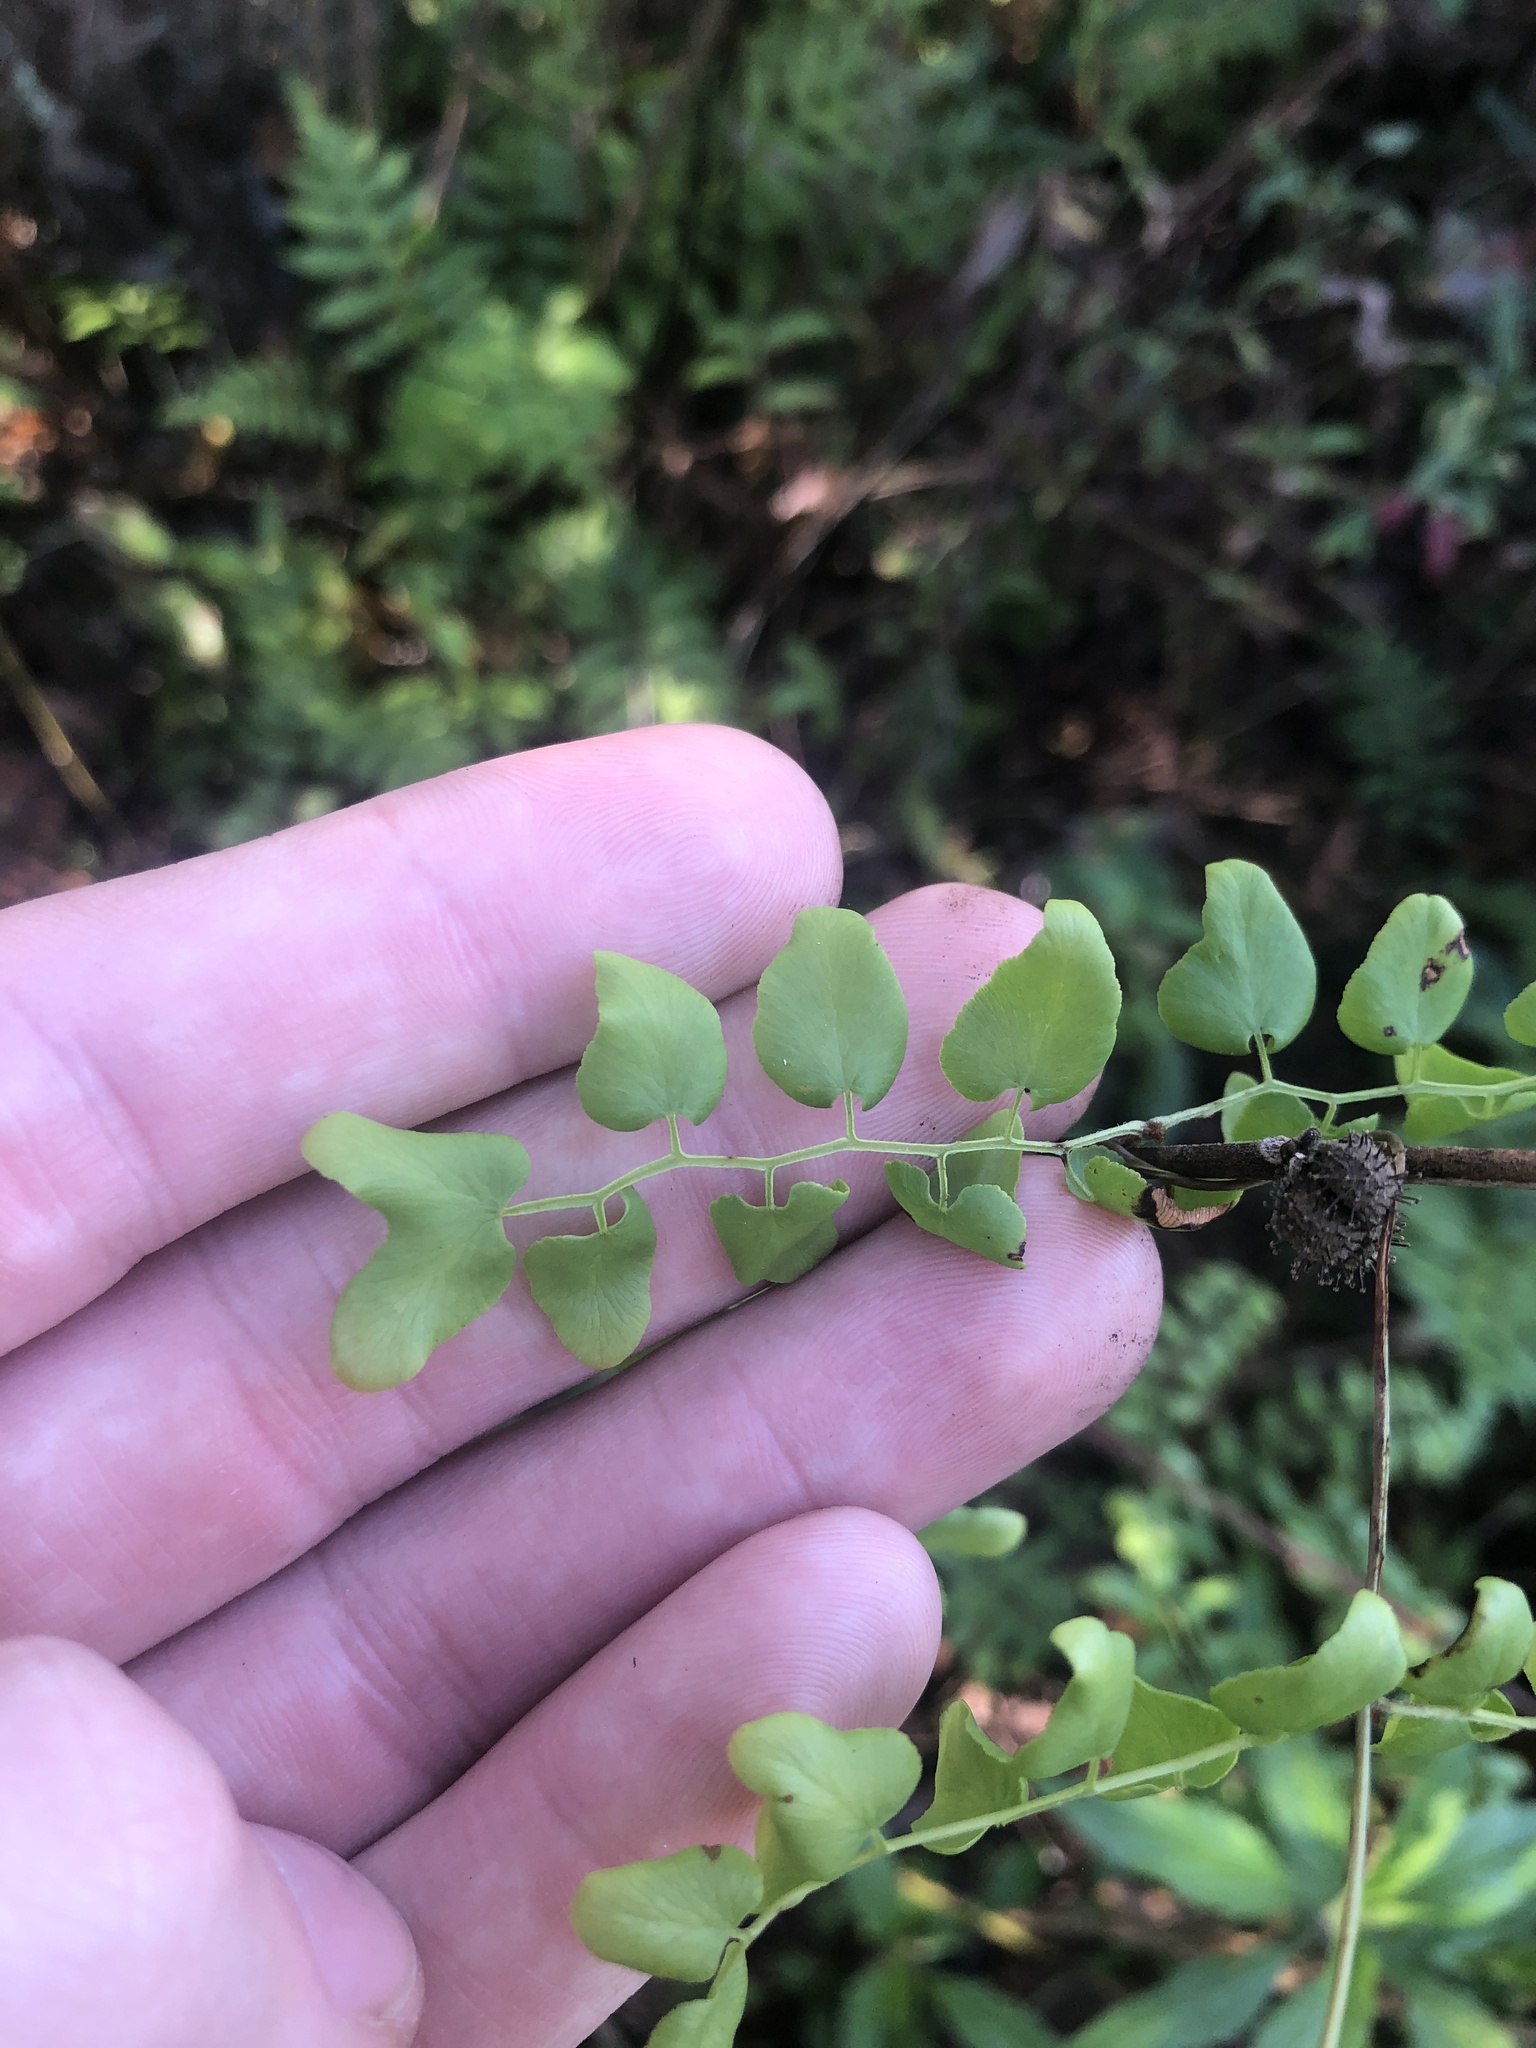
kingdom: Plantae
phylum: Tracheophyta
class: Polypodiopsida
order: Schizaeales
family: Lygodiaceae
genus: Lygodium
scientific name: Lygodium microphyllum
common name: Small-leaf climbing fern
